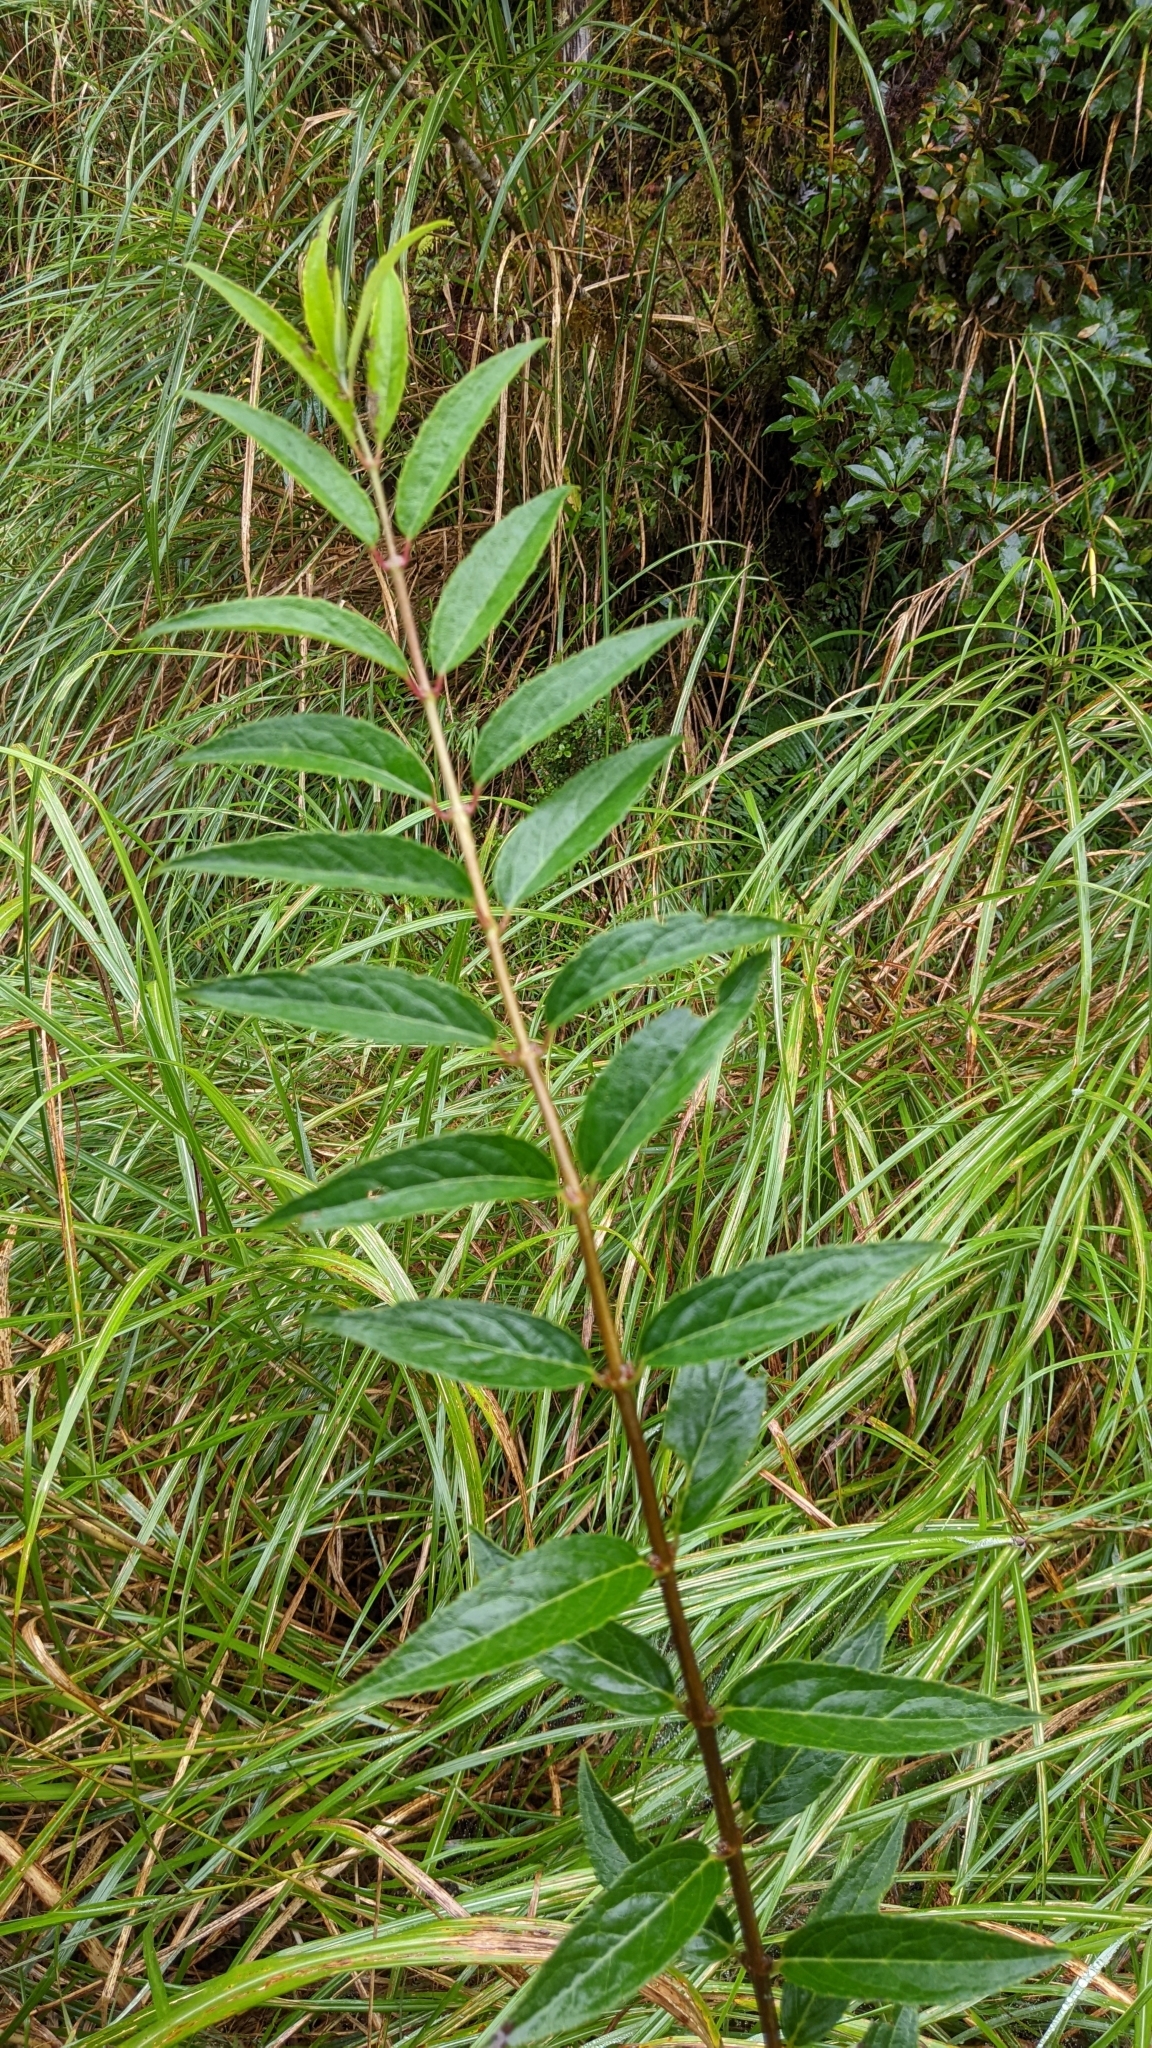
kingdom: Plantae
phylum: Tracheophyta
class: Magnoliopsida
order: Cornales
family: Hydrangeaceae
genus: Deutzia
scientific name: Deutzia pulchra
